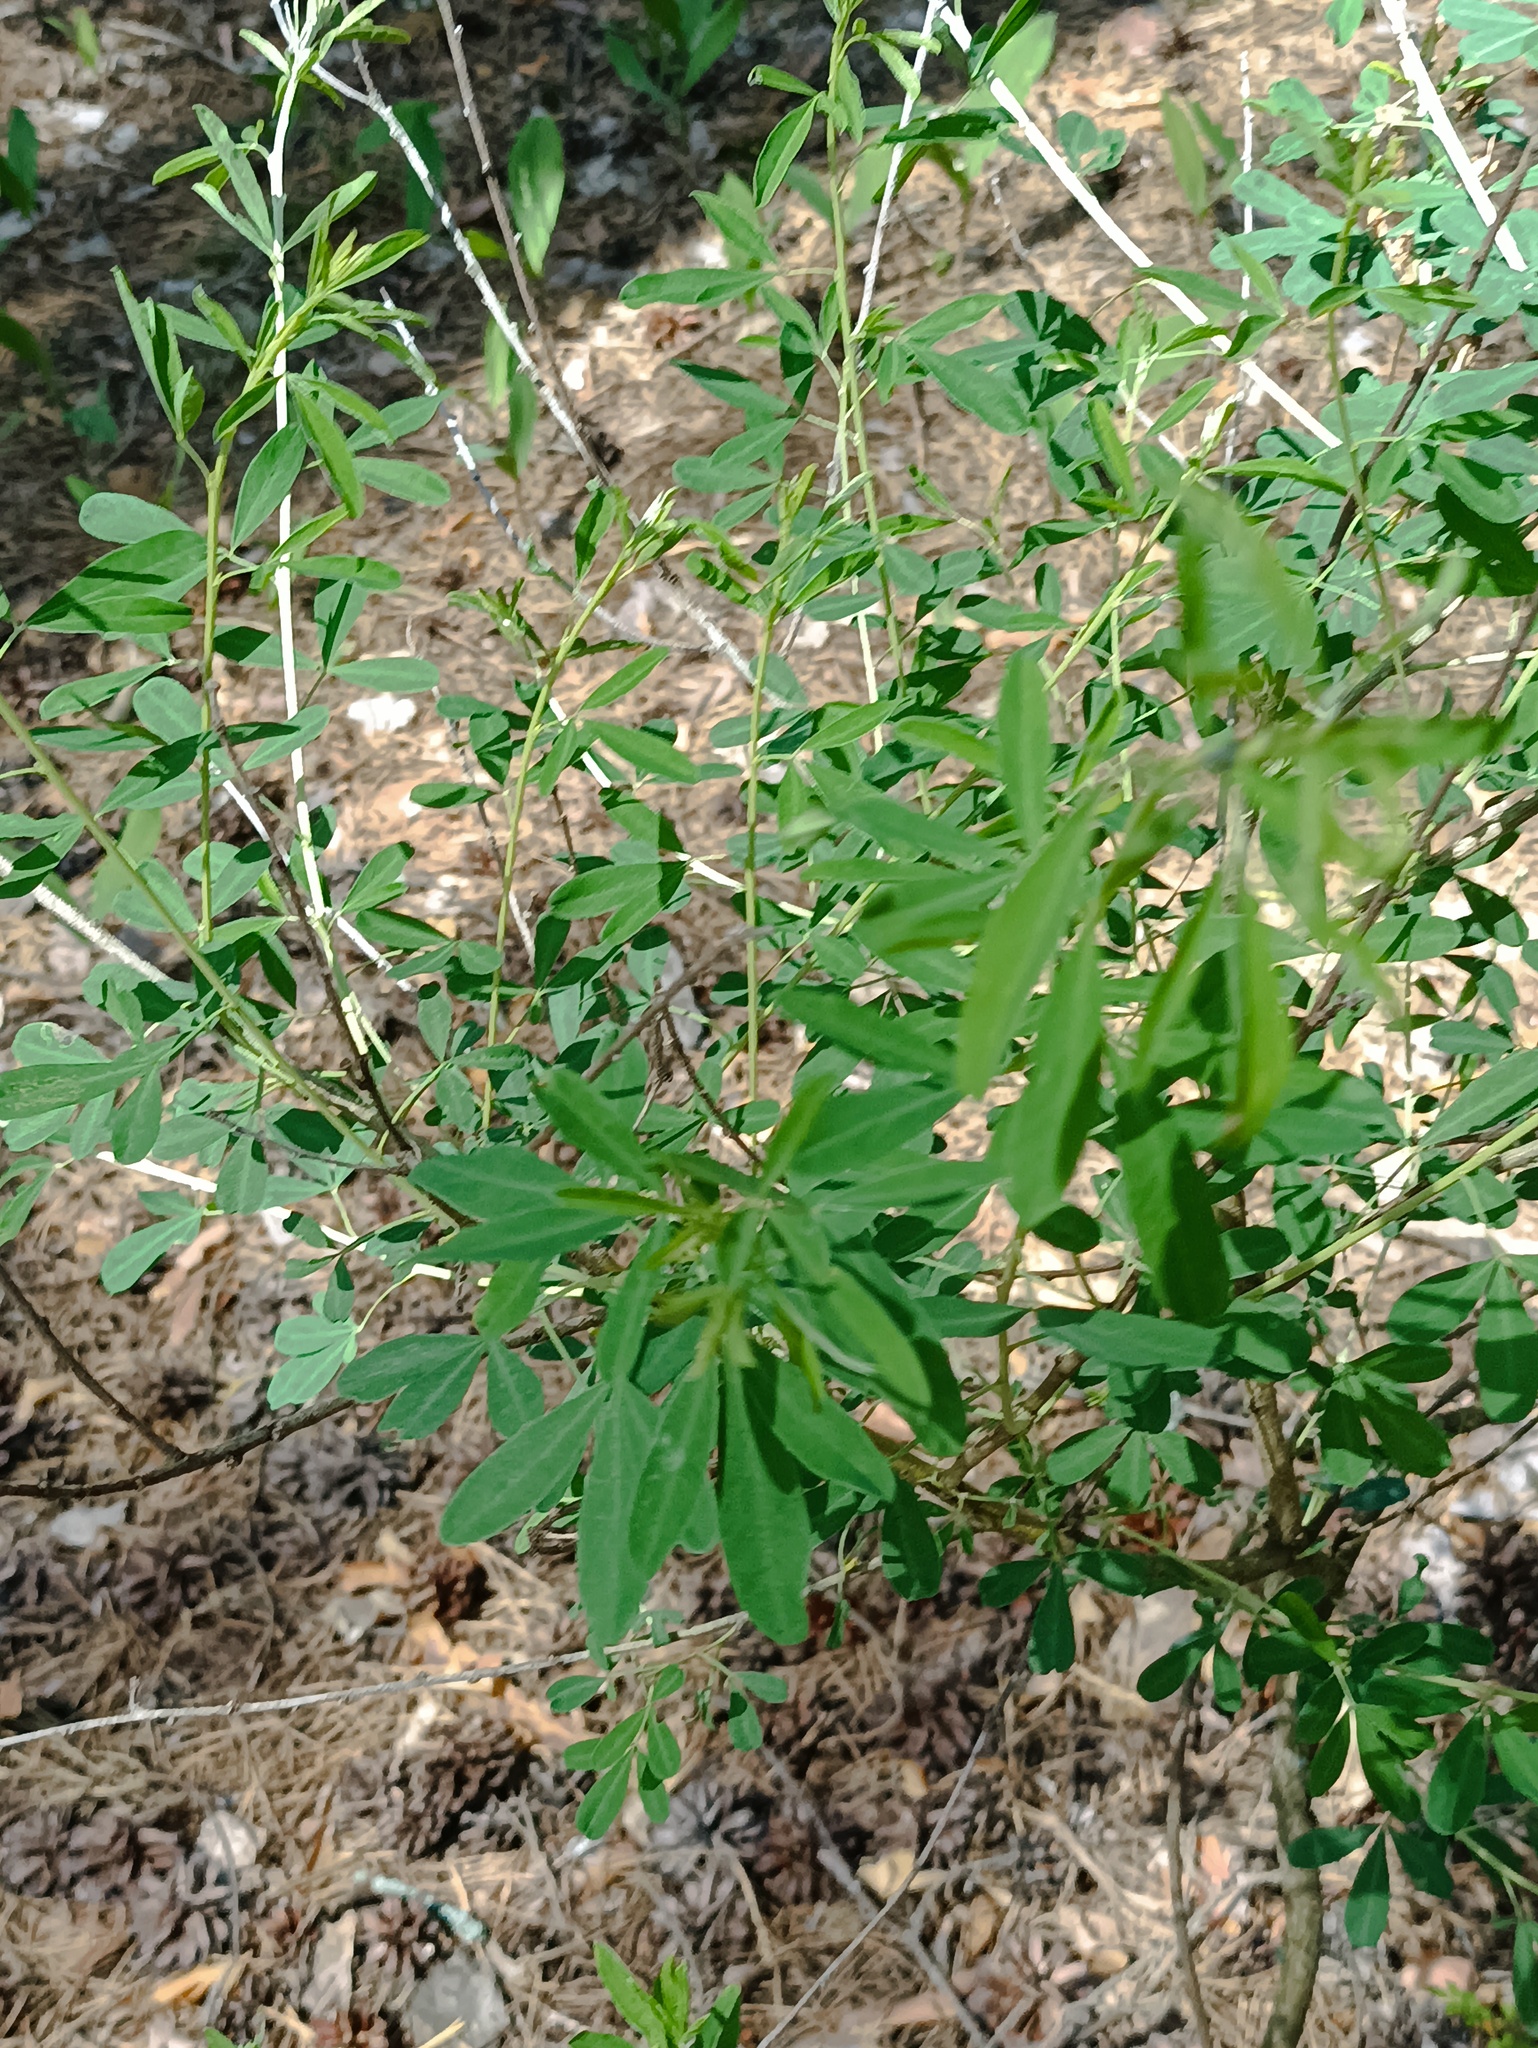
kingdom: Plantae
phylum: Tracheophyta
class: Magnoliopsida
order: Fabales
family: Fabaceae
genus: Chamaecytisus
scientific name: Chamaecytisus ruthenicus
